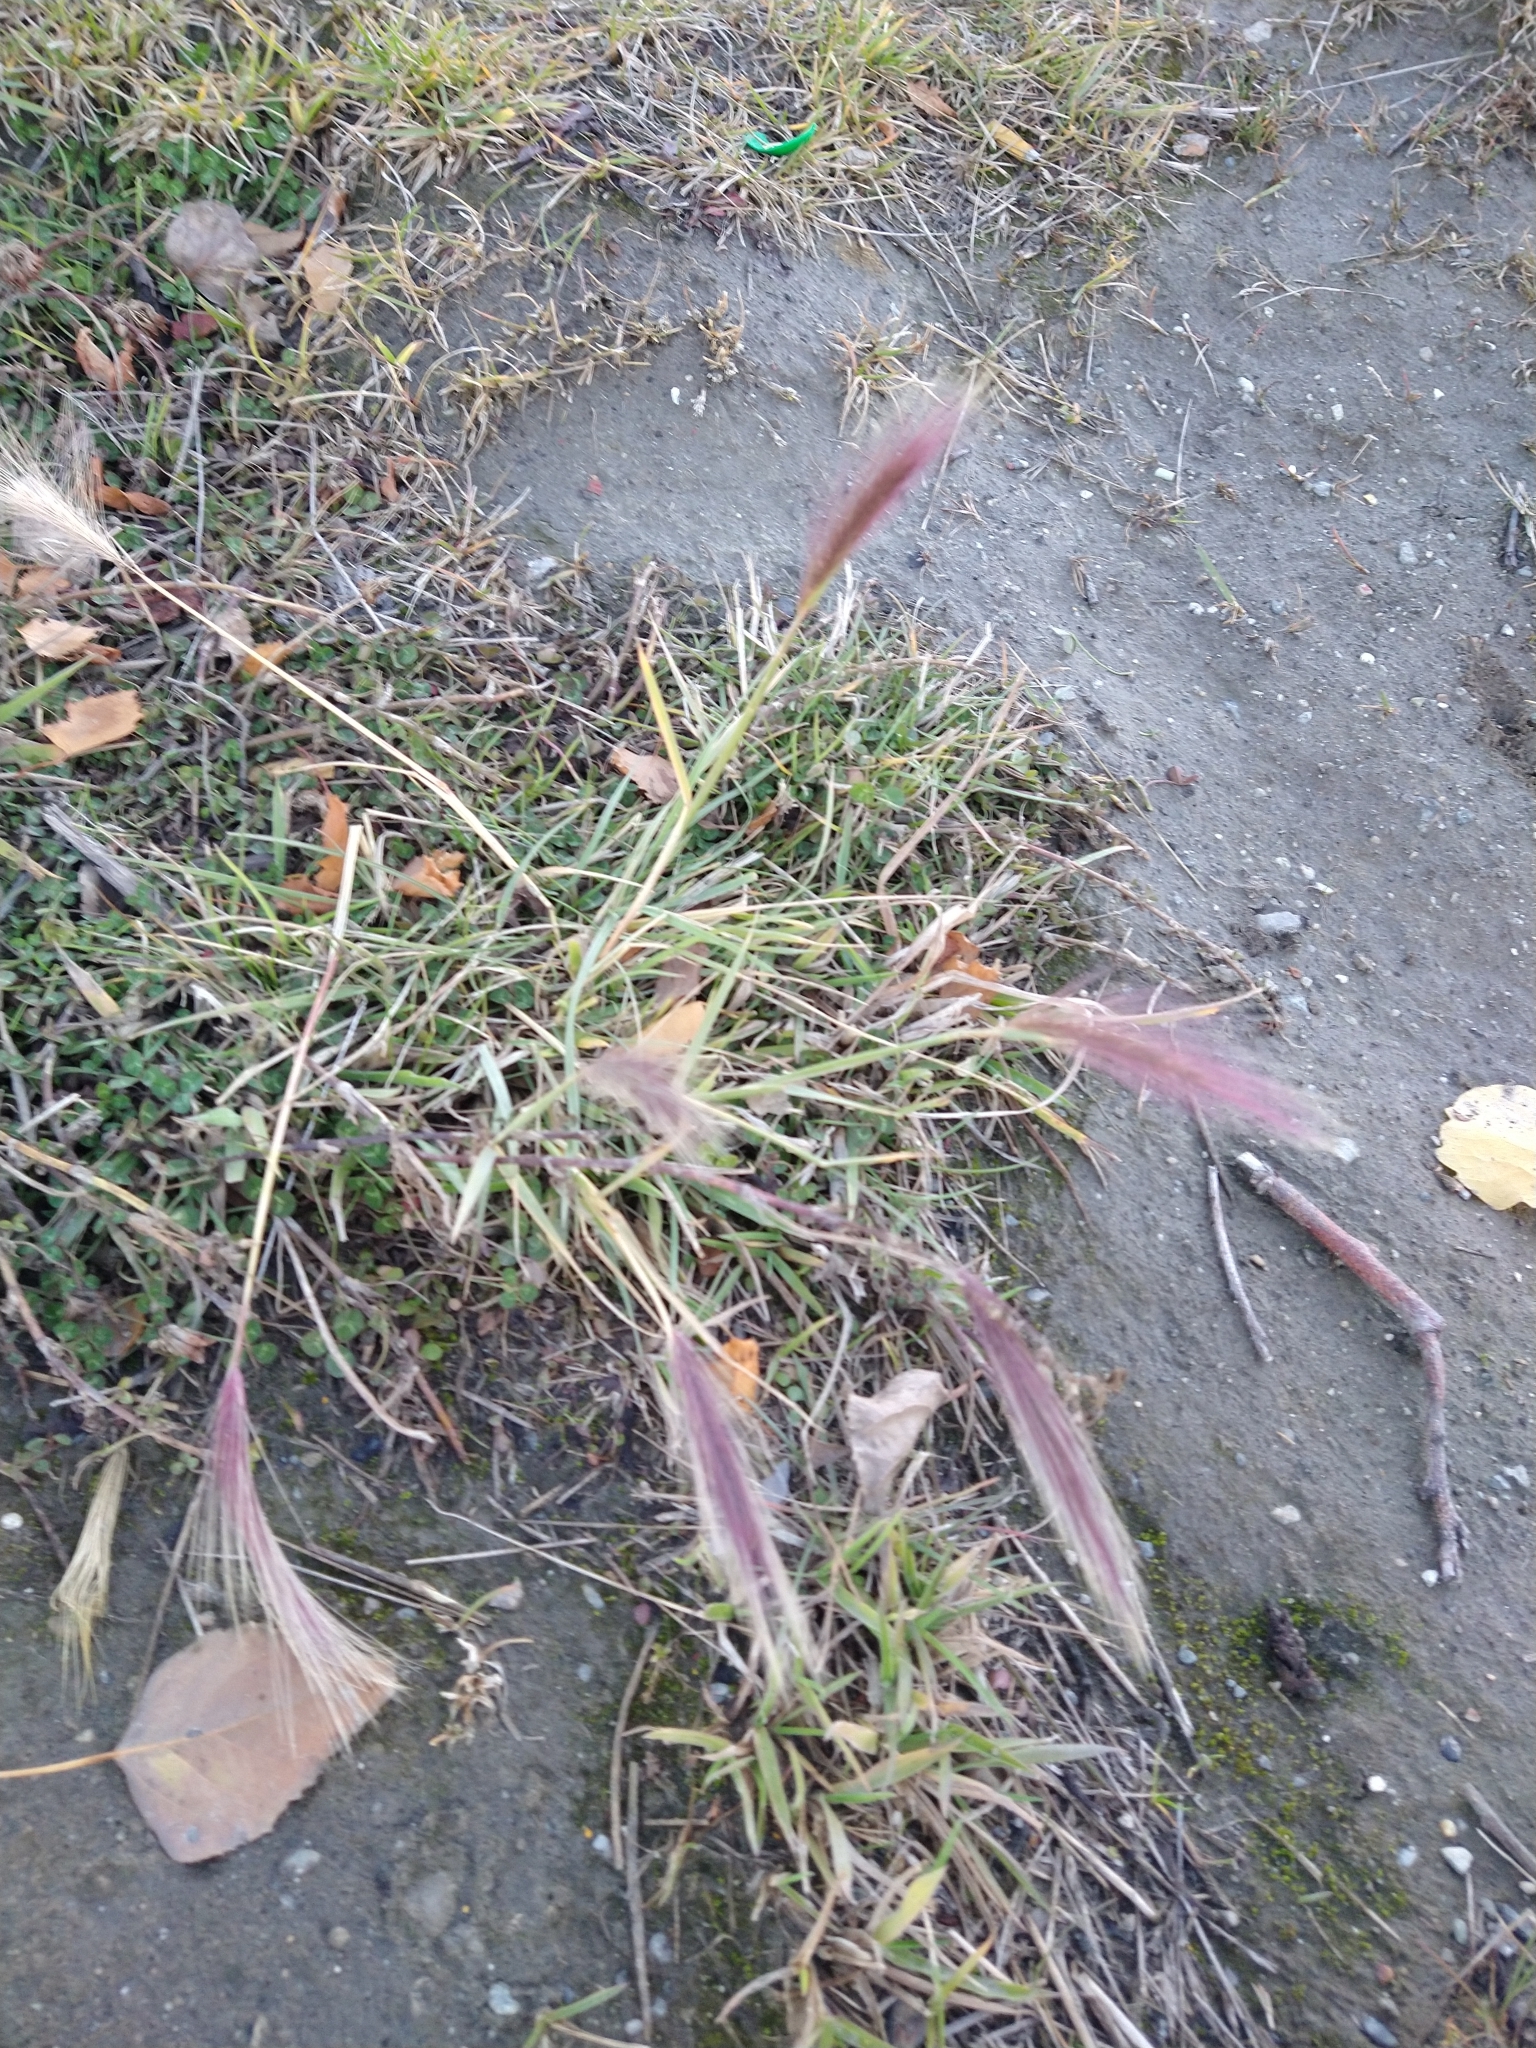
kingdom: Plantae
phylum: Tracheophyta
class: Liliopsida
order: Poales
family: Poaceae
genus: Hordeum
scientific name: Hordeum
